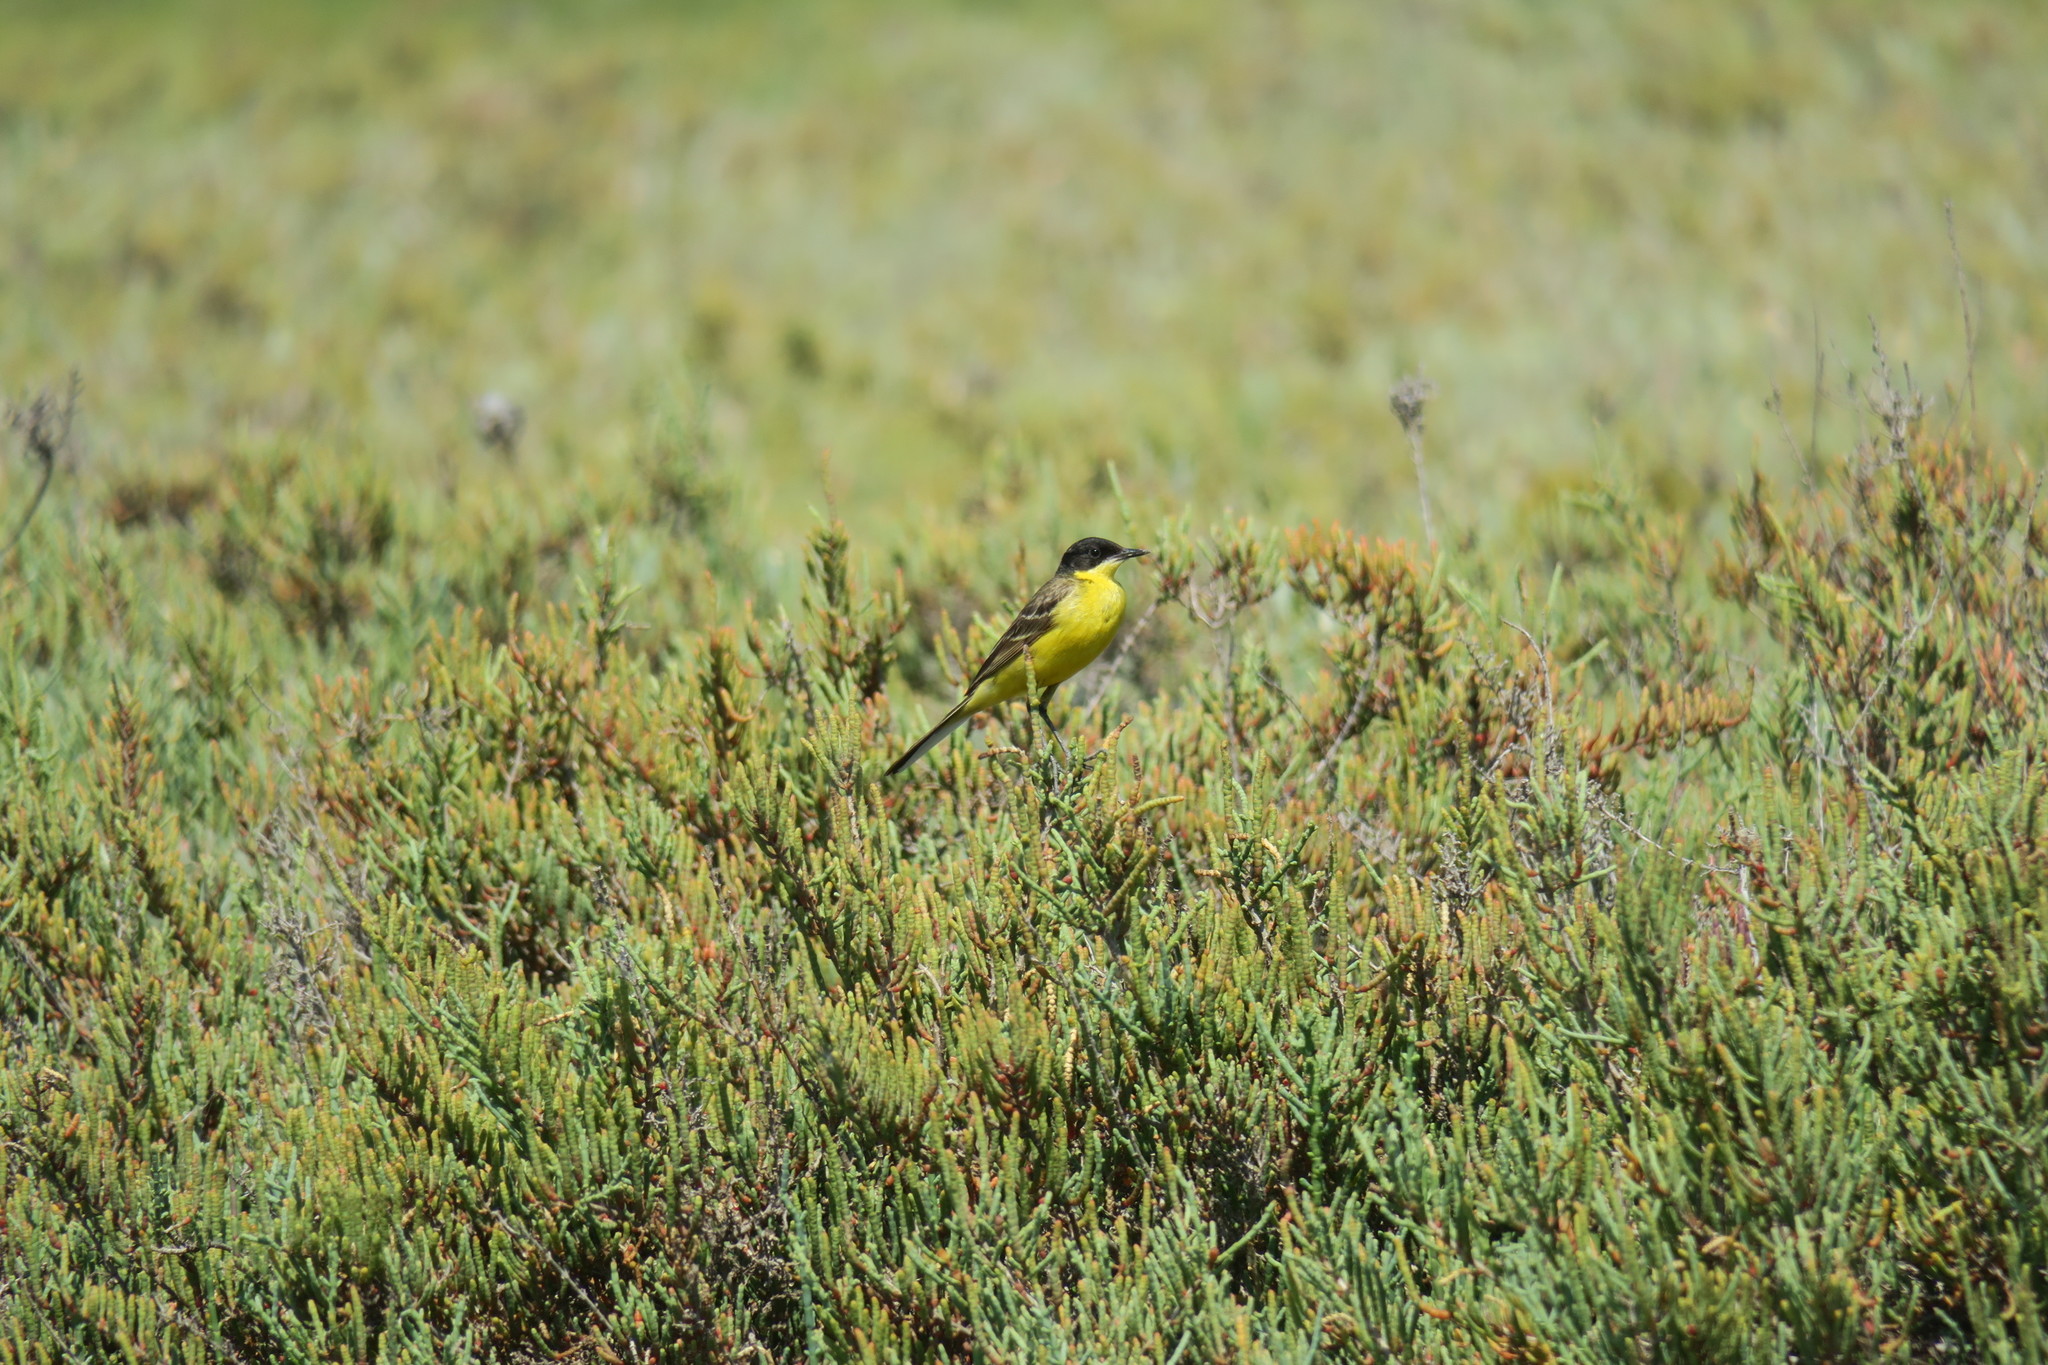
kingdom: Animalia
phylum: Chordata
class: Aves
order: Passeriformes
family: Motacillidae
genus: Motacilla
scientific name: Motacilla flava
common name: Western yellow wagtail
